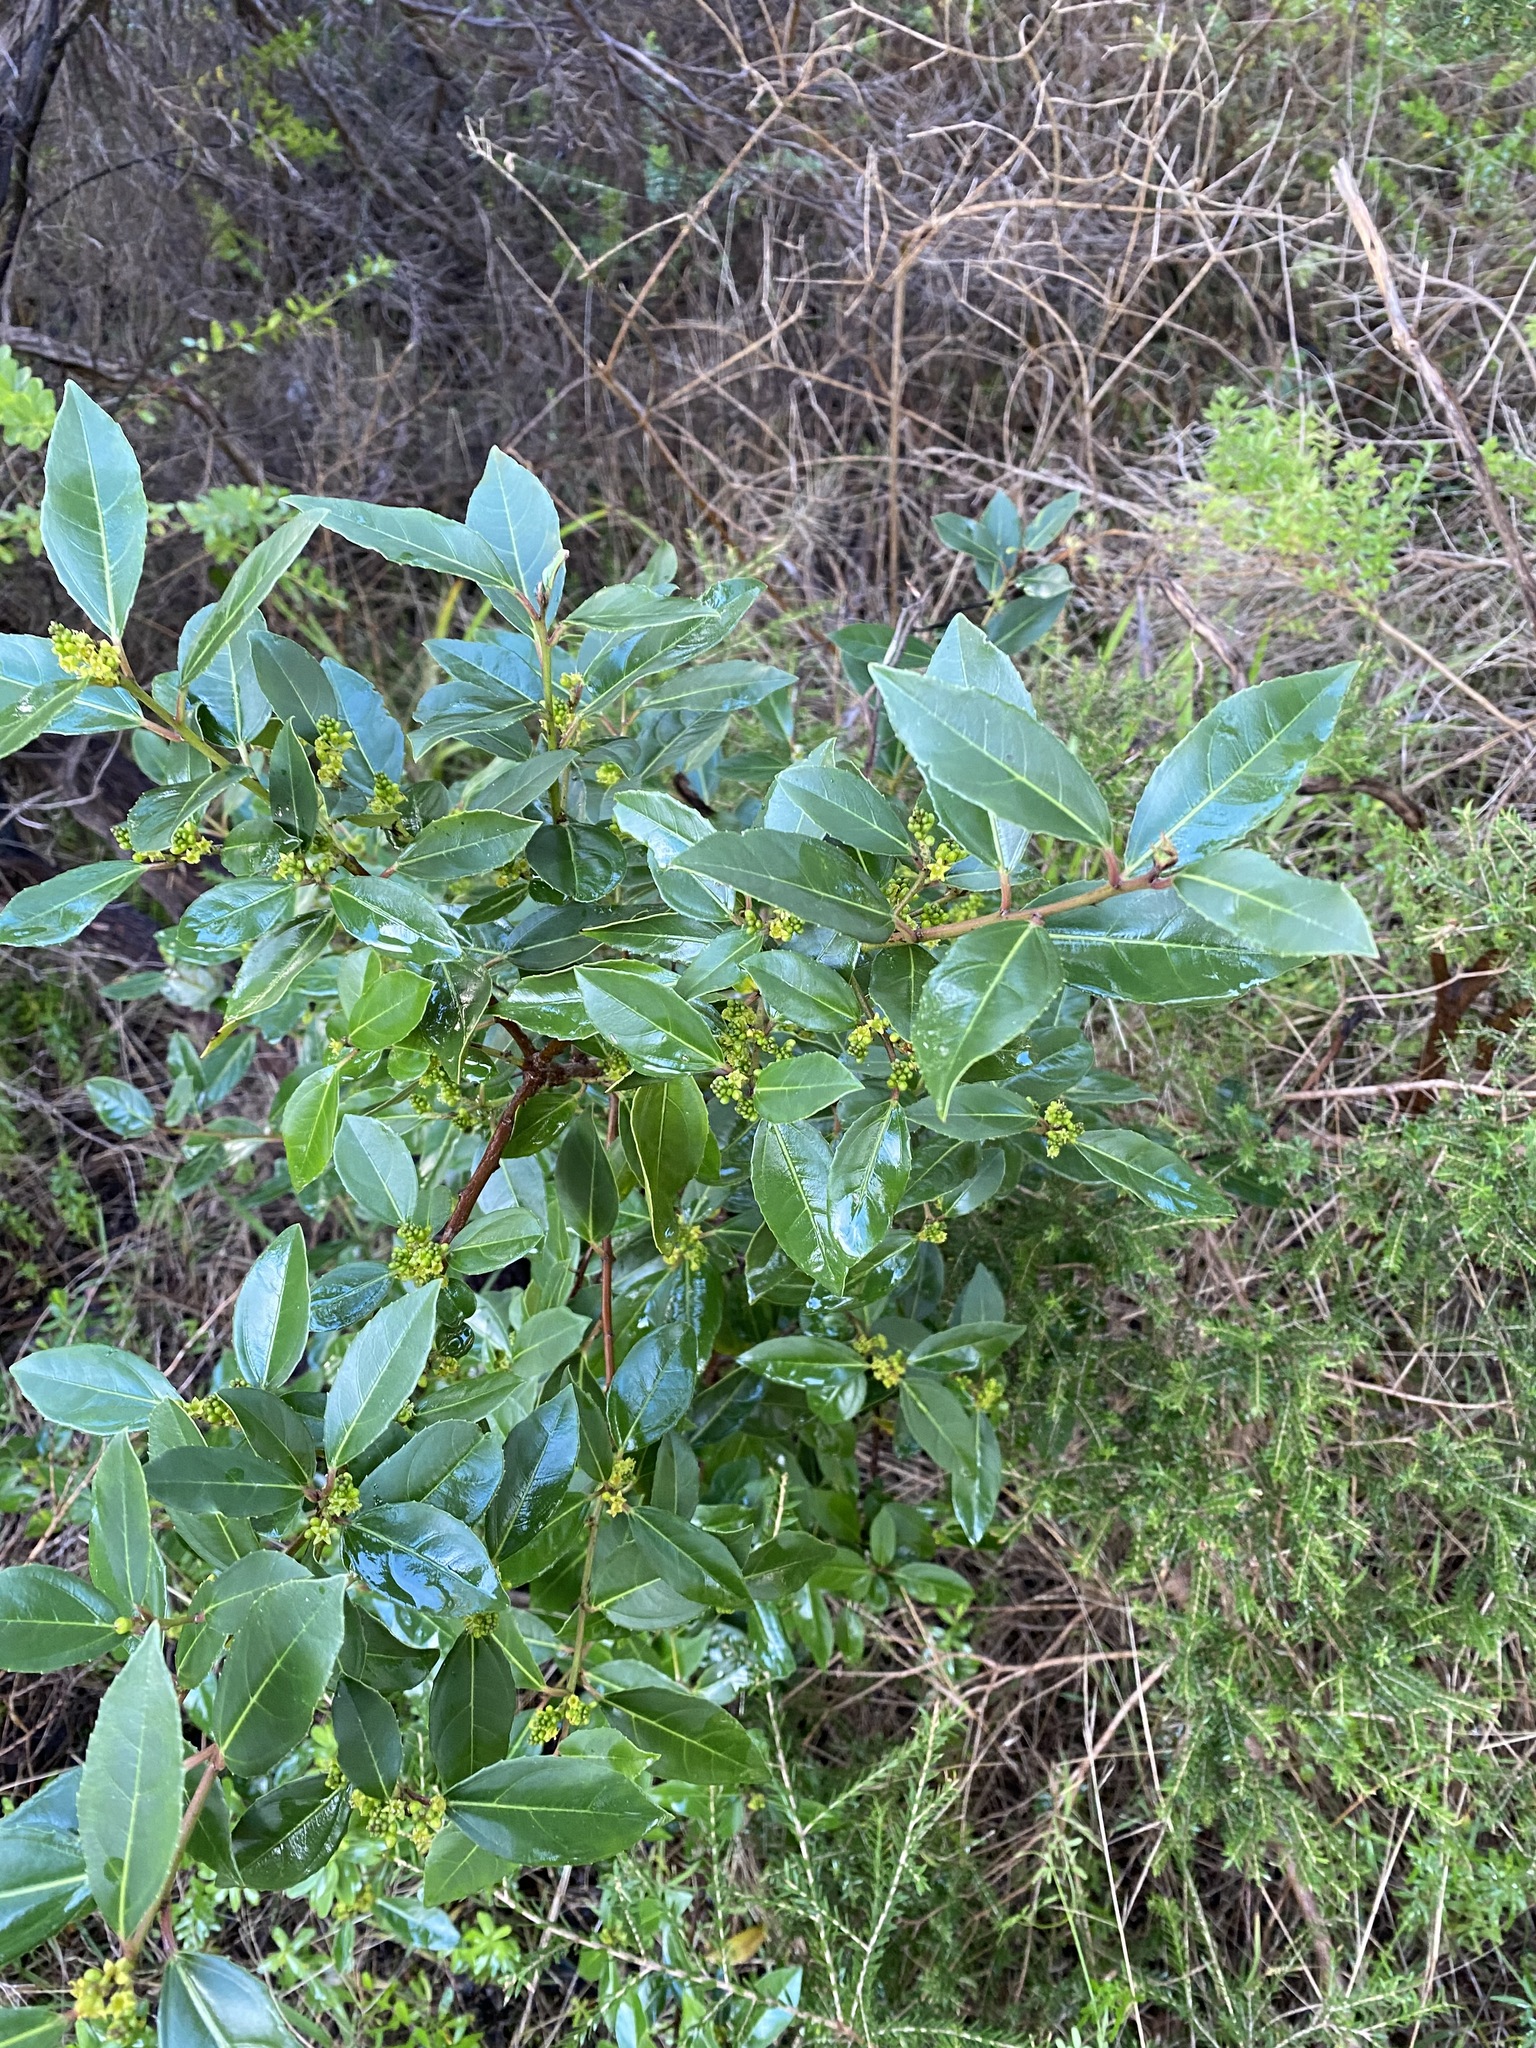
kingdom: Plantae
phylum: Tracheophyta
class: Magnoliopsida
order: Rosales
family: Rhamnaceae
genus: Rhamnus
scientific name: Rhamnus alaternus
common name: Mediterranean buckthorn
